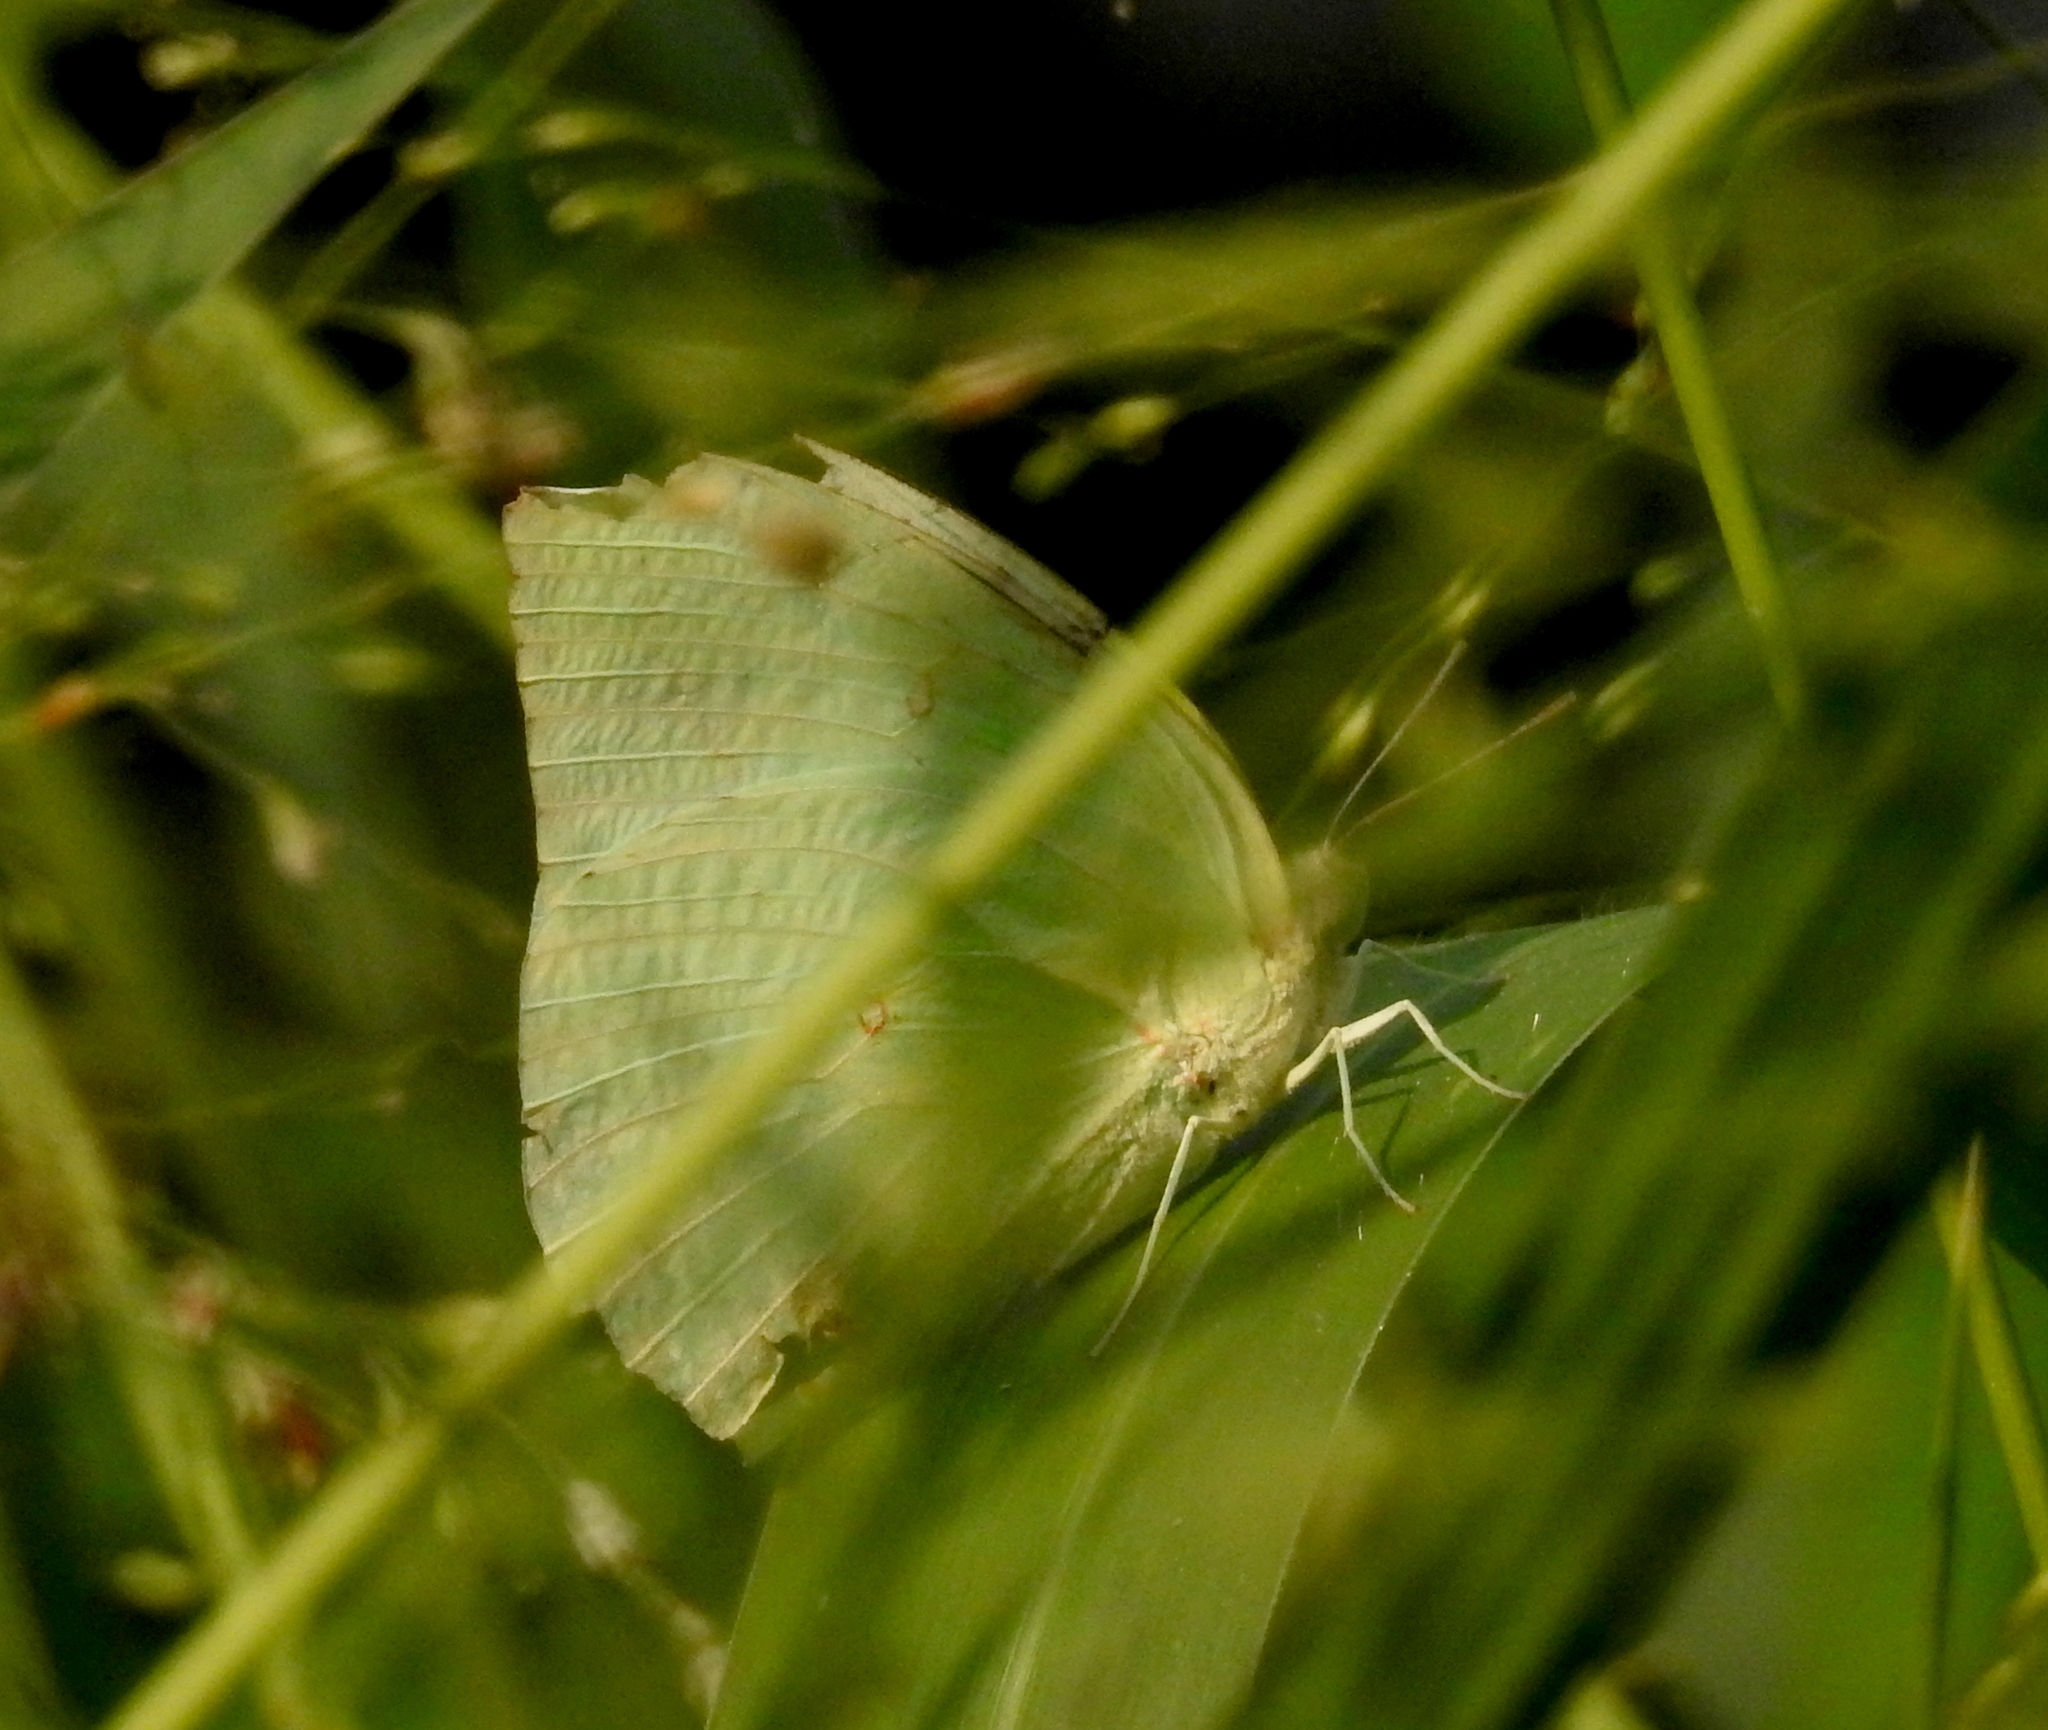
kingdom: Animalia
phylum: Arthropoda
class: Insecta
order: Lepidoptera
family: Pieridae
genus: Catopsilia
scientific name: Catopsilia pomona
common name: Common emigrant
